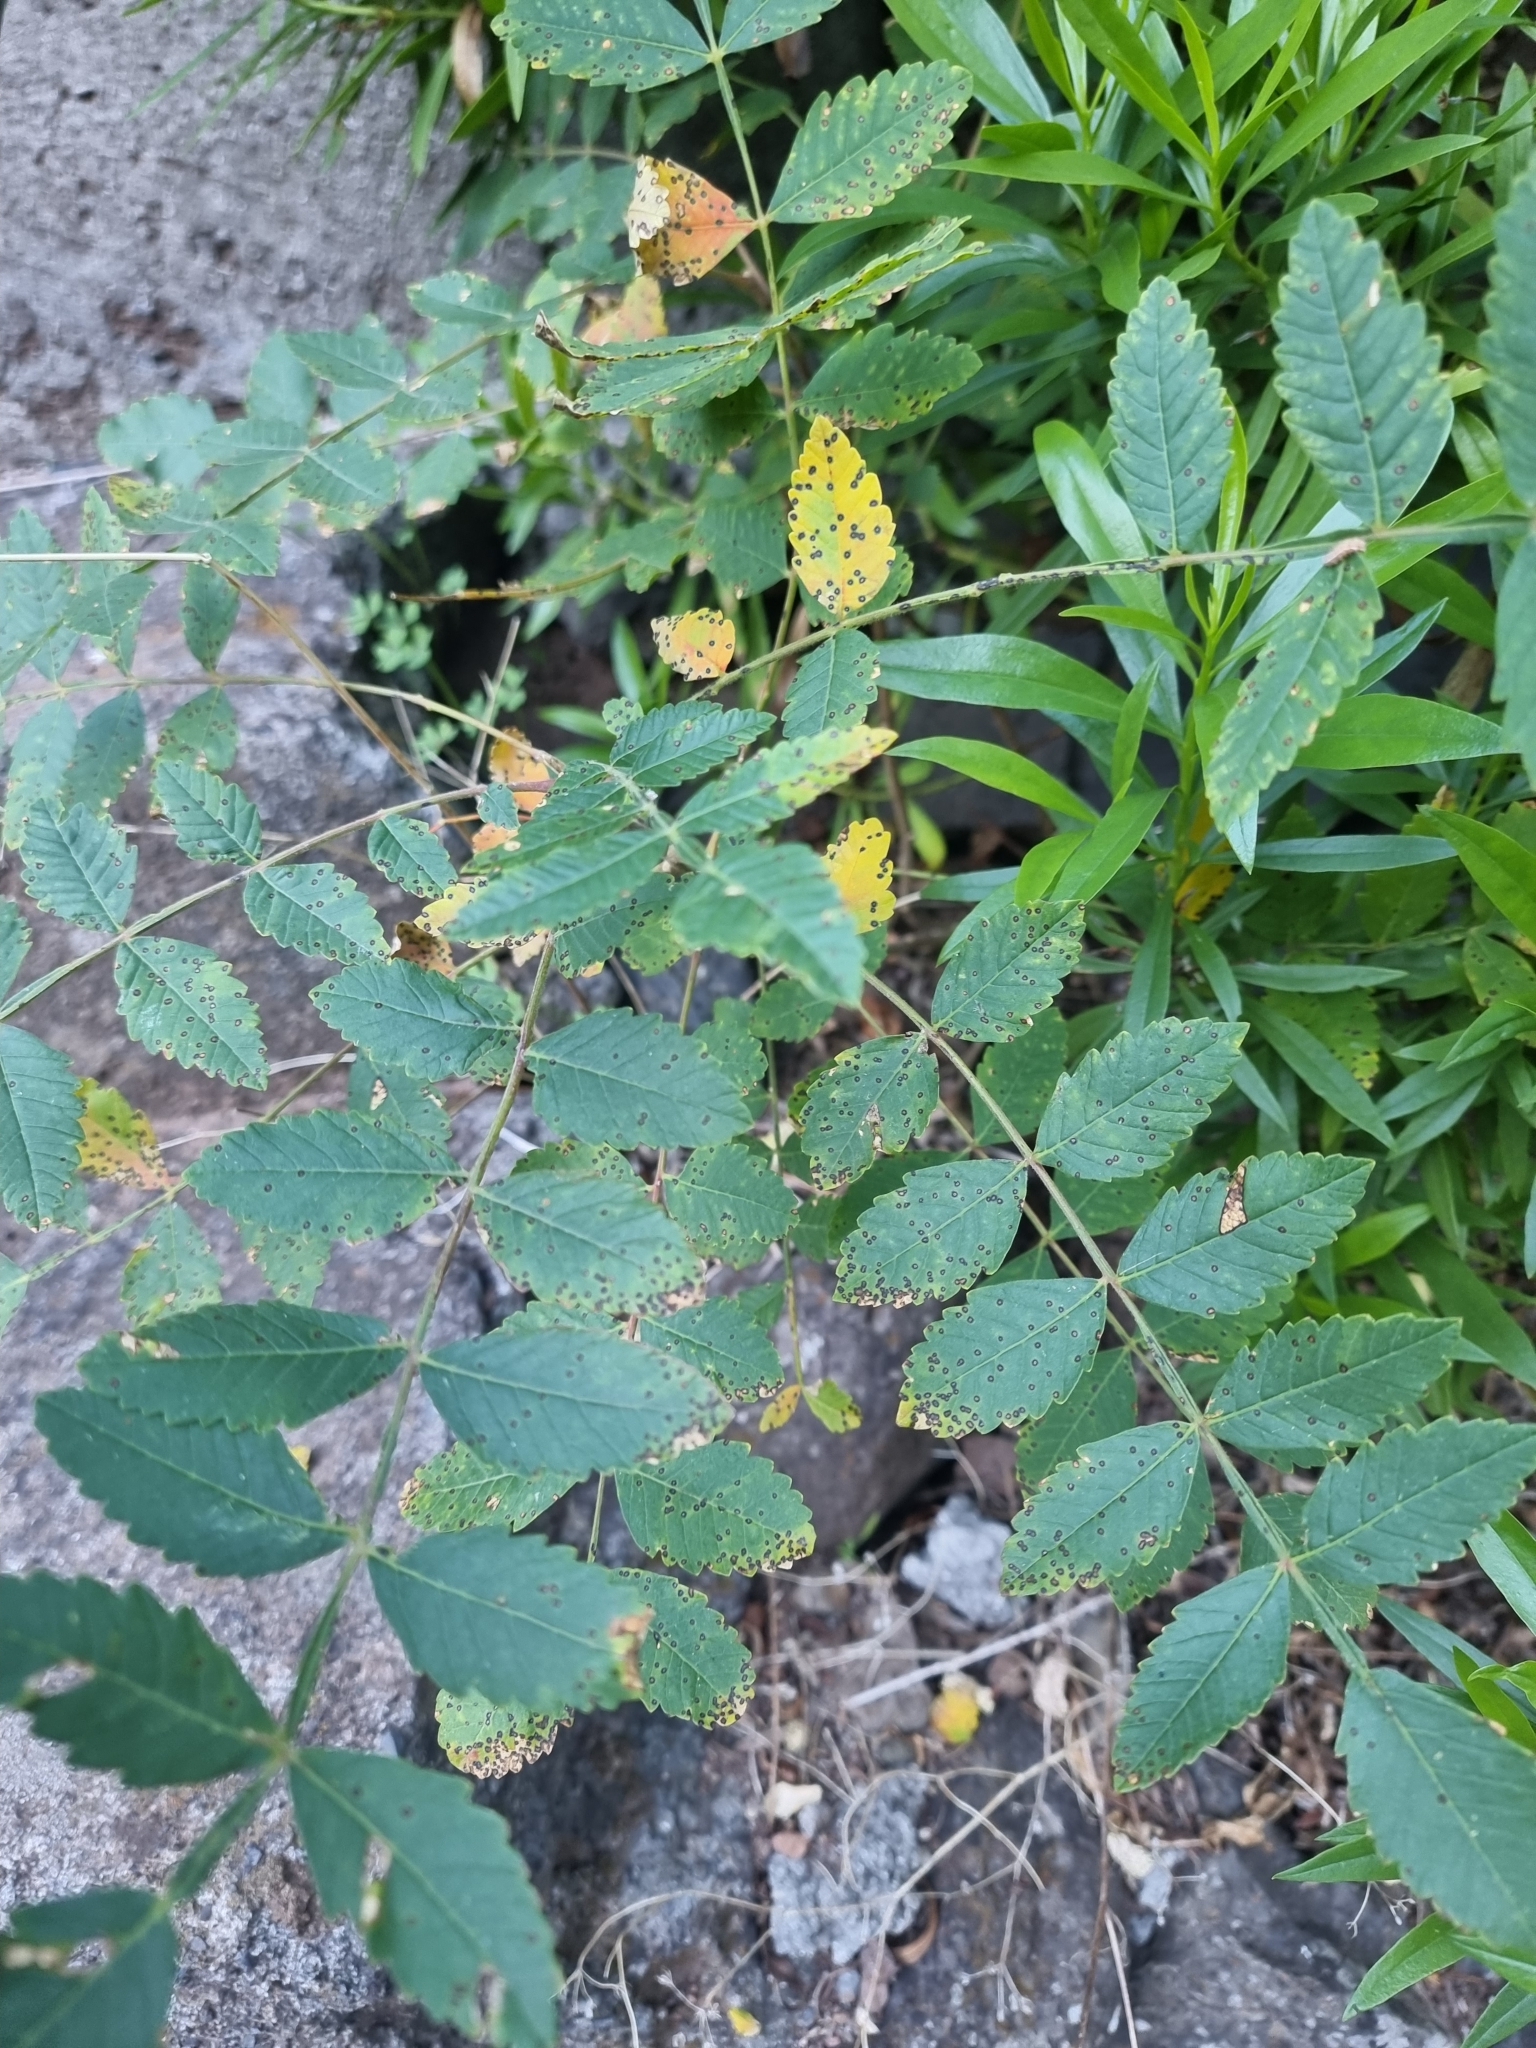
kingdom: Plantae
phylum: Tracheophyta
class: Magnoliopsida
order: Sapindales
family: Anacardiaceae
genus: Rhus
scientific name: Rhus coriaria
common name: Tanner's sumach
